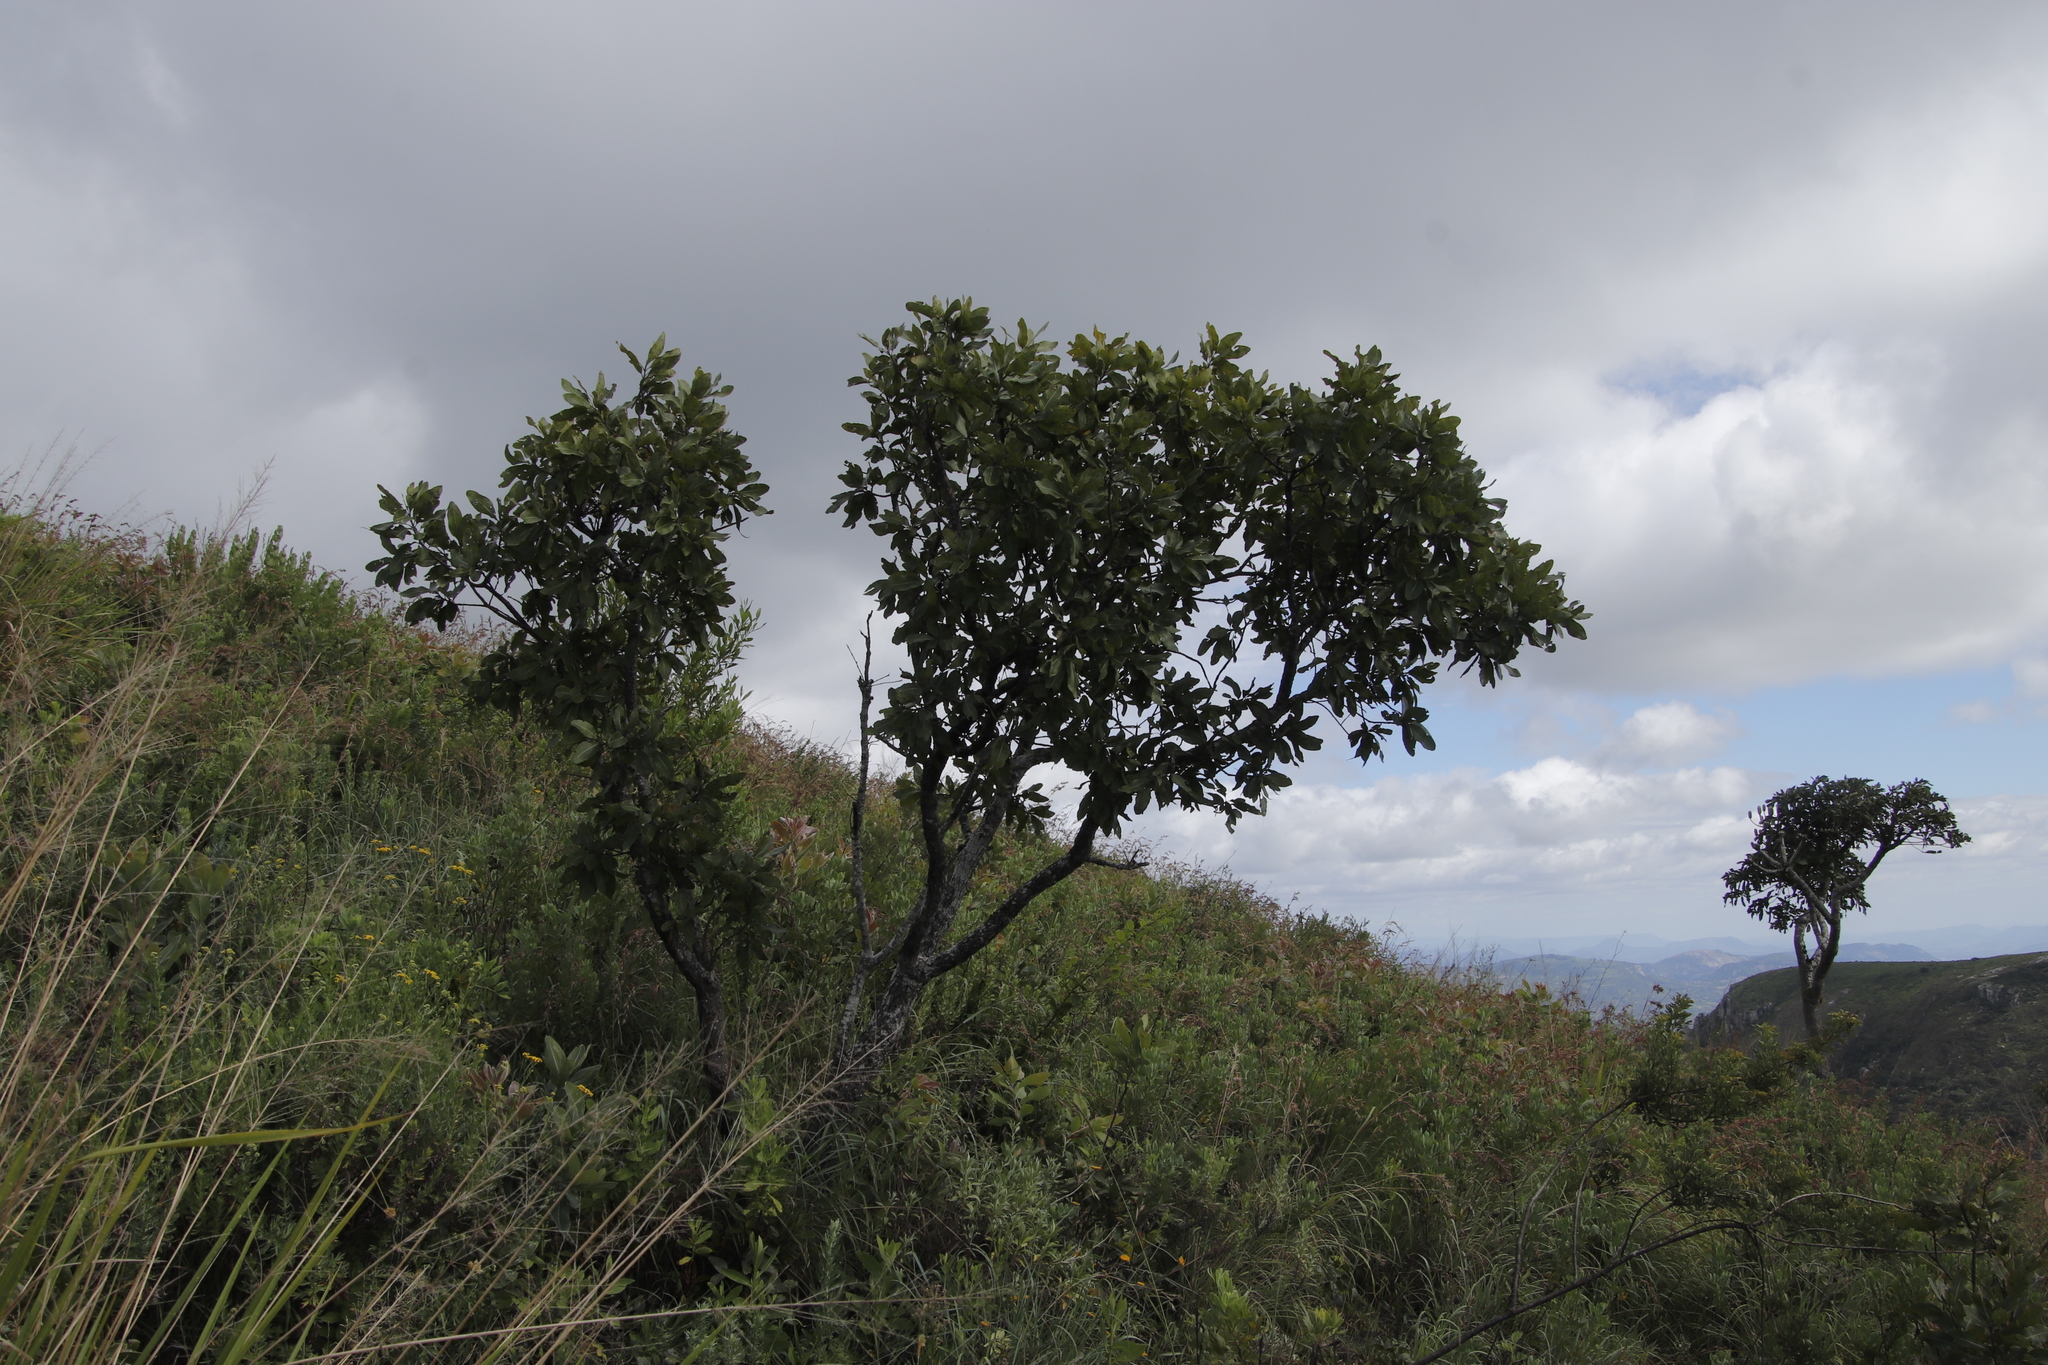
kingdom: Plantae
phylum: Tracheophyta
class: Magnoliopsida
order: Proteales
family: Proteaceae
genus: Faurea
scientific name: Faurea rochetiana
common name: Broad-leaved beech
